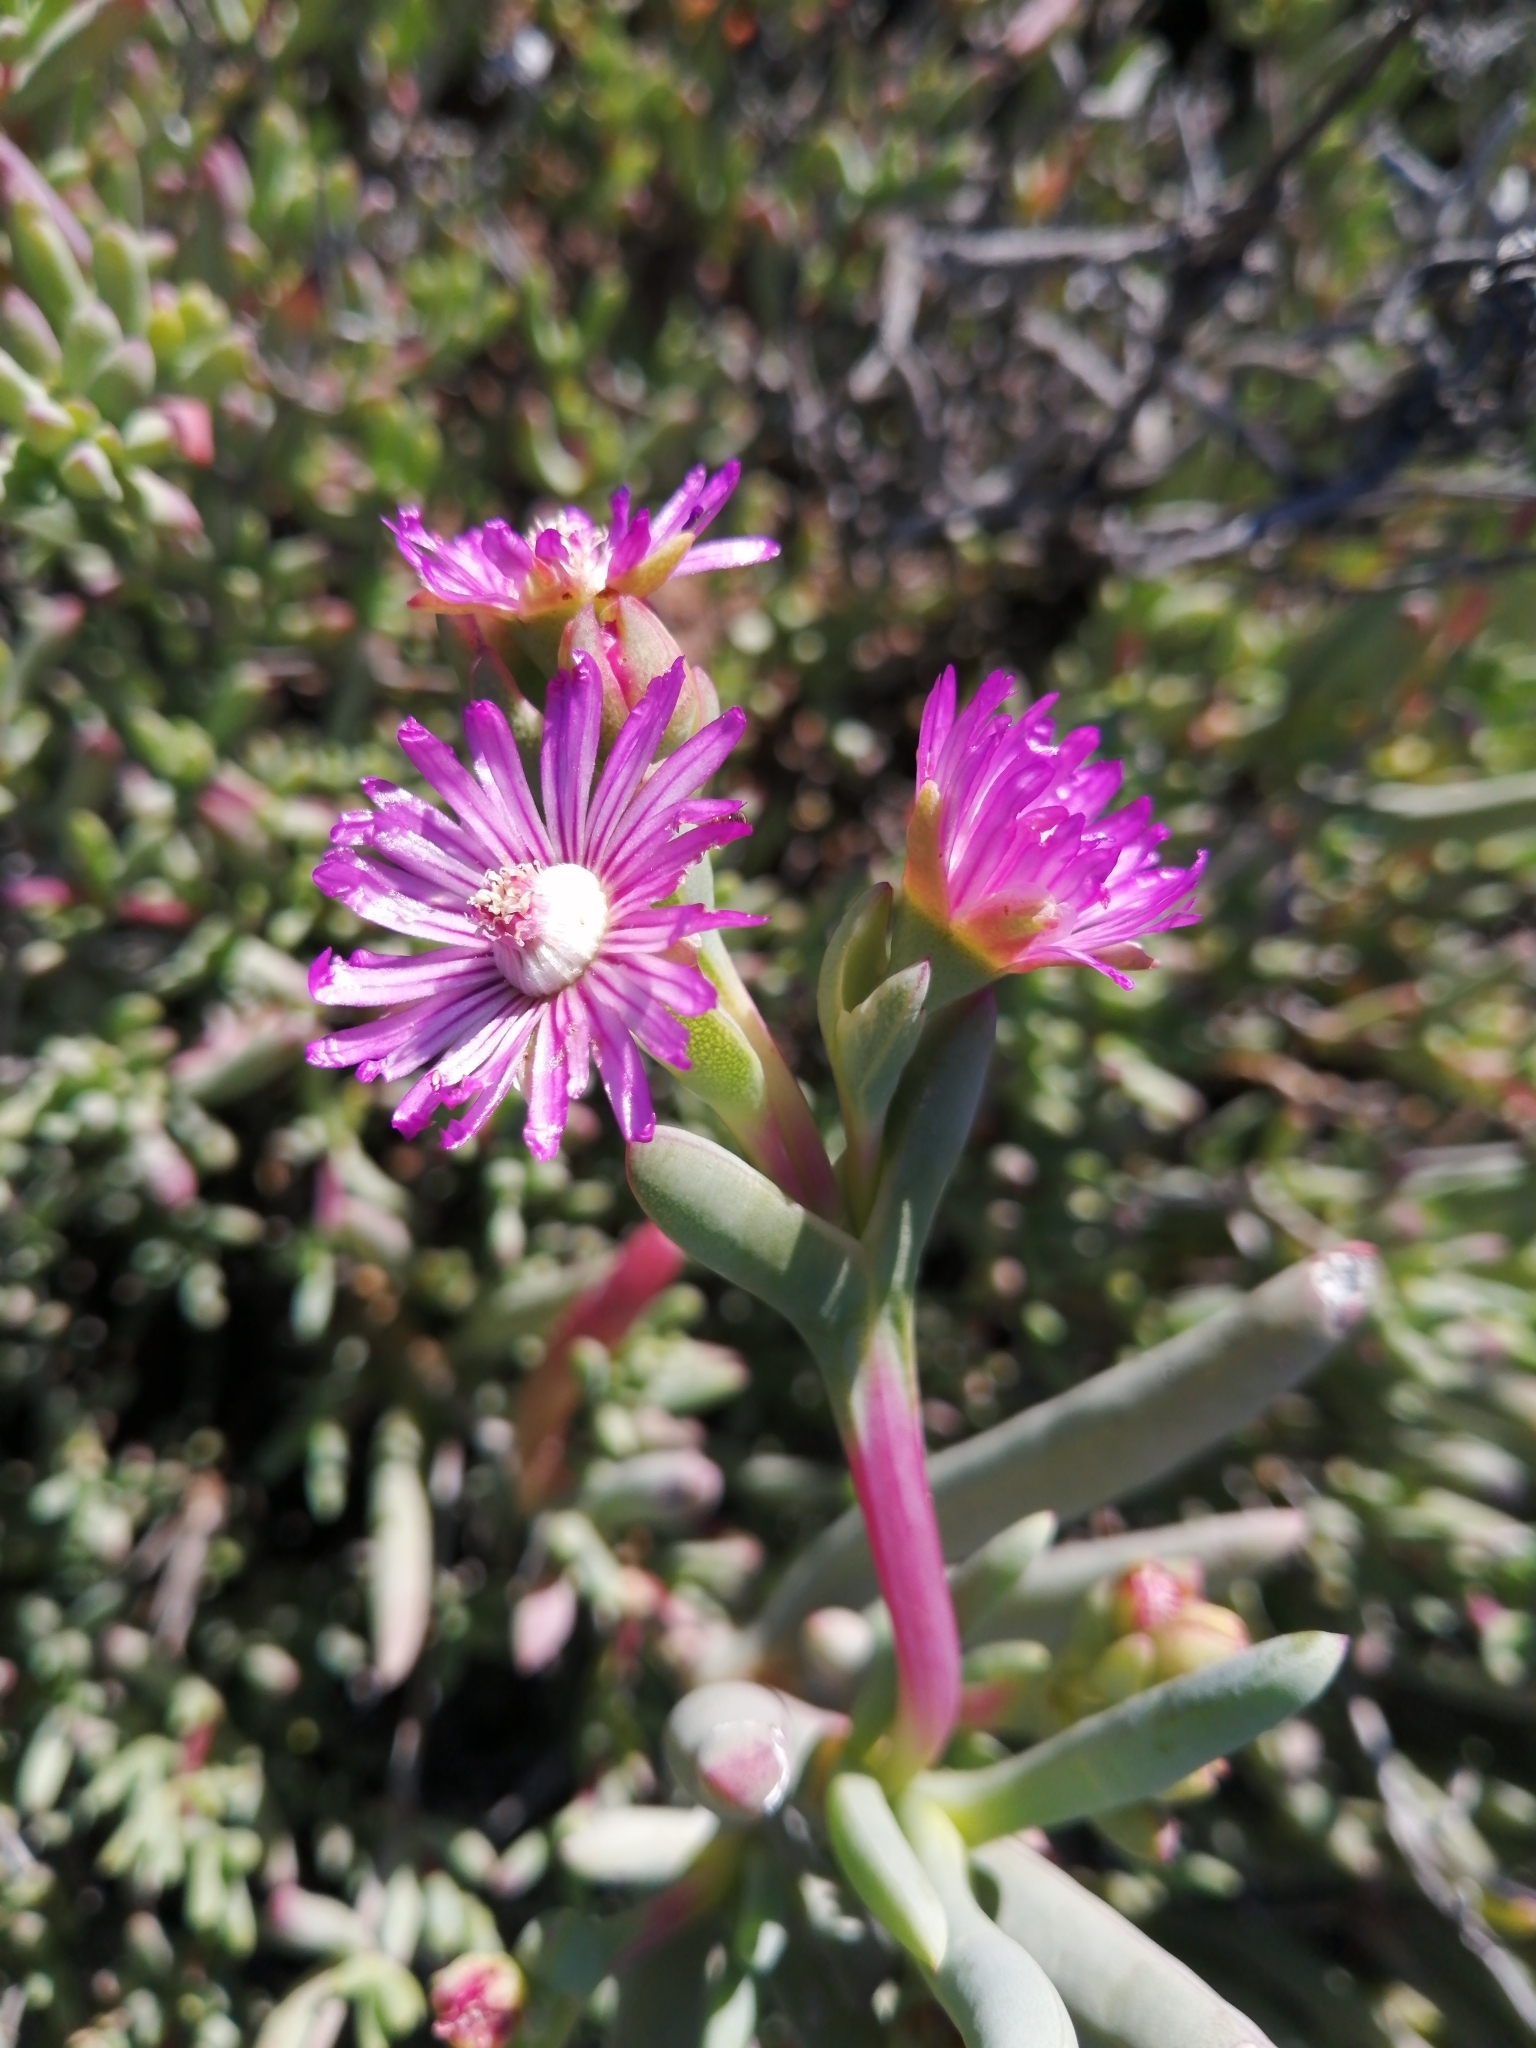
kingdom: Plantae
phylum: Tracheophyta
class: Magnoliopsida
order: Caryophyllales
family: Aizoaceae
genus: Ruschia
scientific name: Ruschia caroli
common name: Shrubby dewplant
